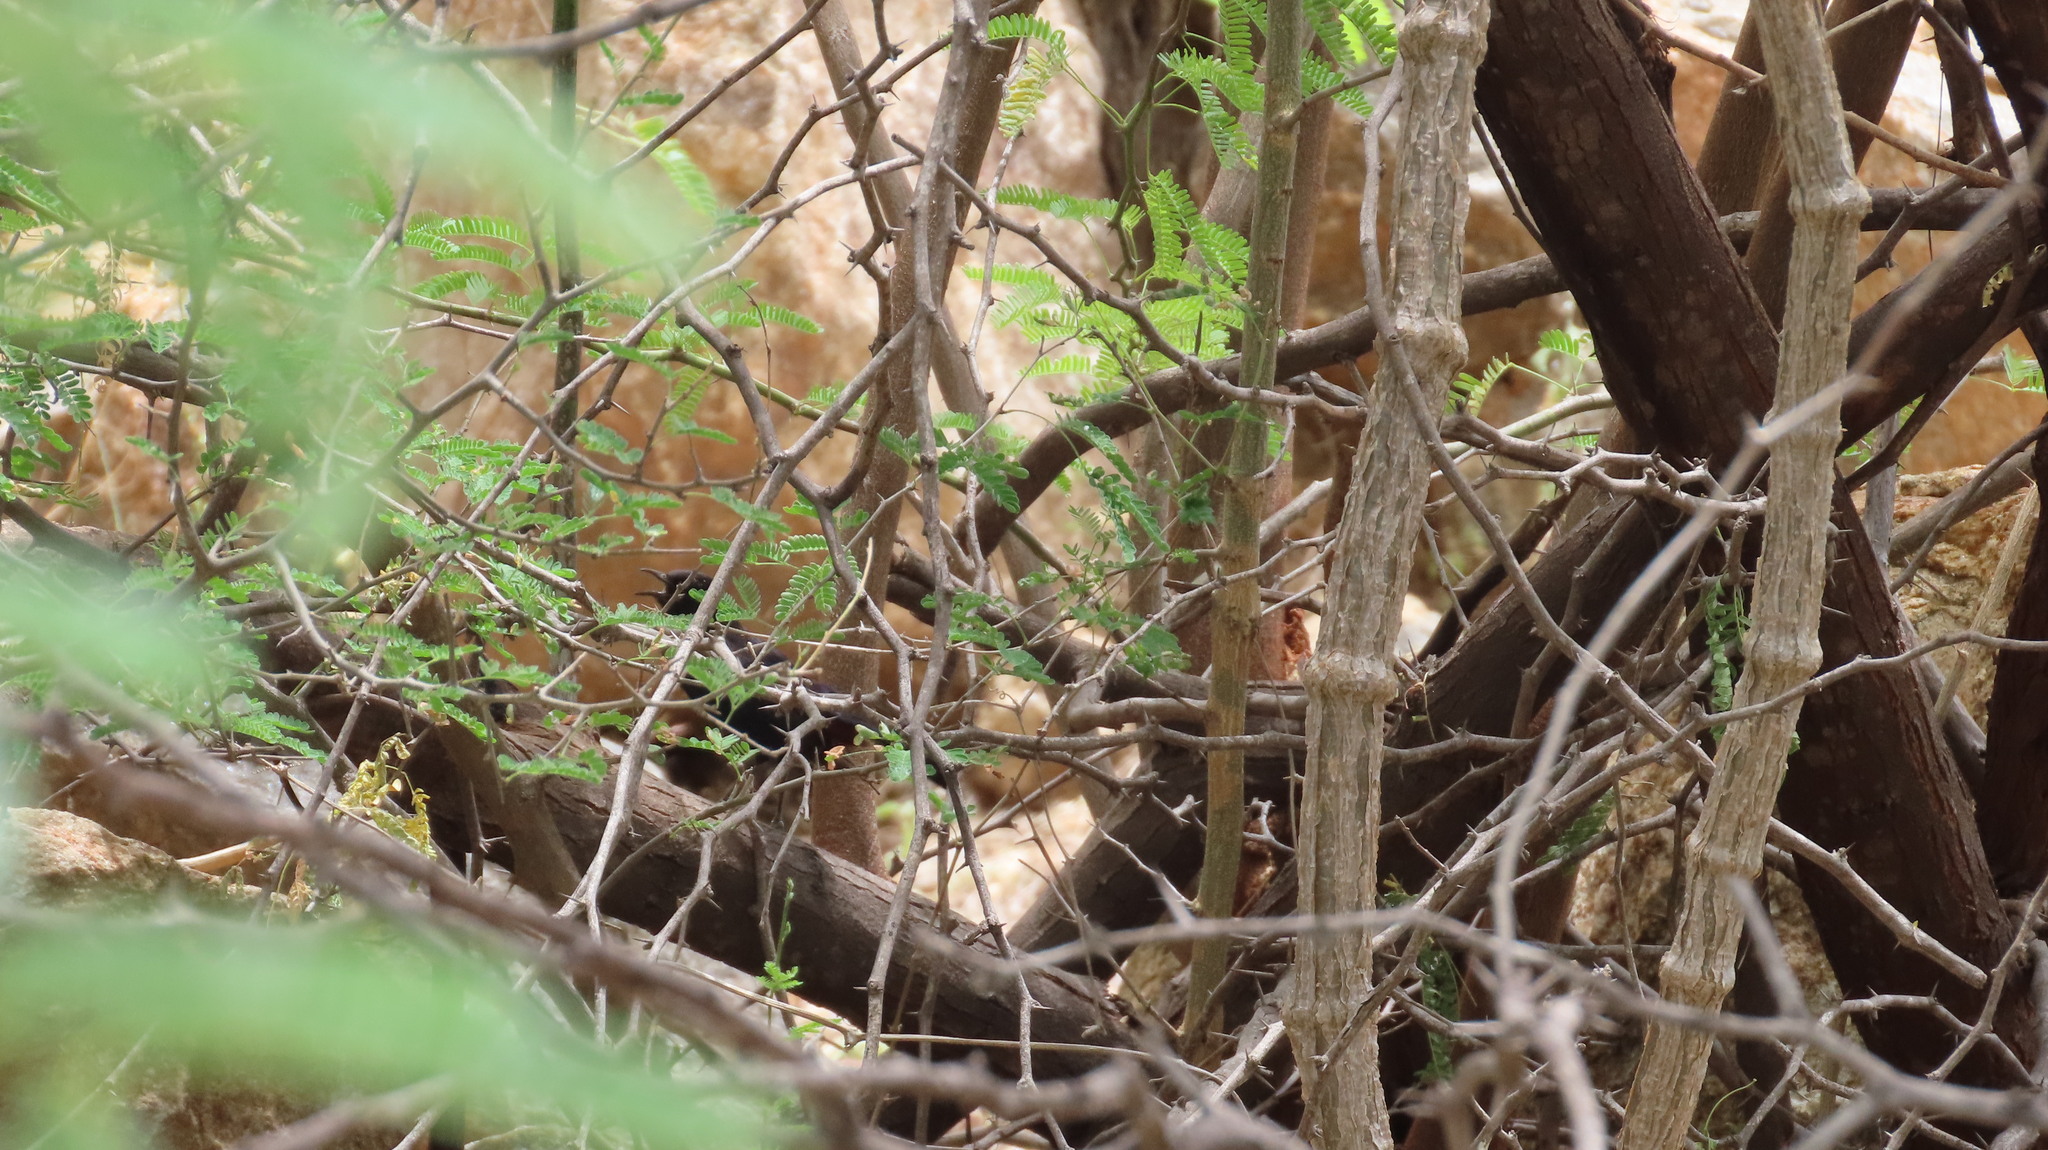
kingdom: Animalia
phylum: Chordata
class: Aves
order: Passeriformes
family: Muscicapidae
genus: Saxicoloides
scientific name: Saxicoloides fulicatus
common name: Indian robin
